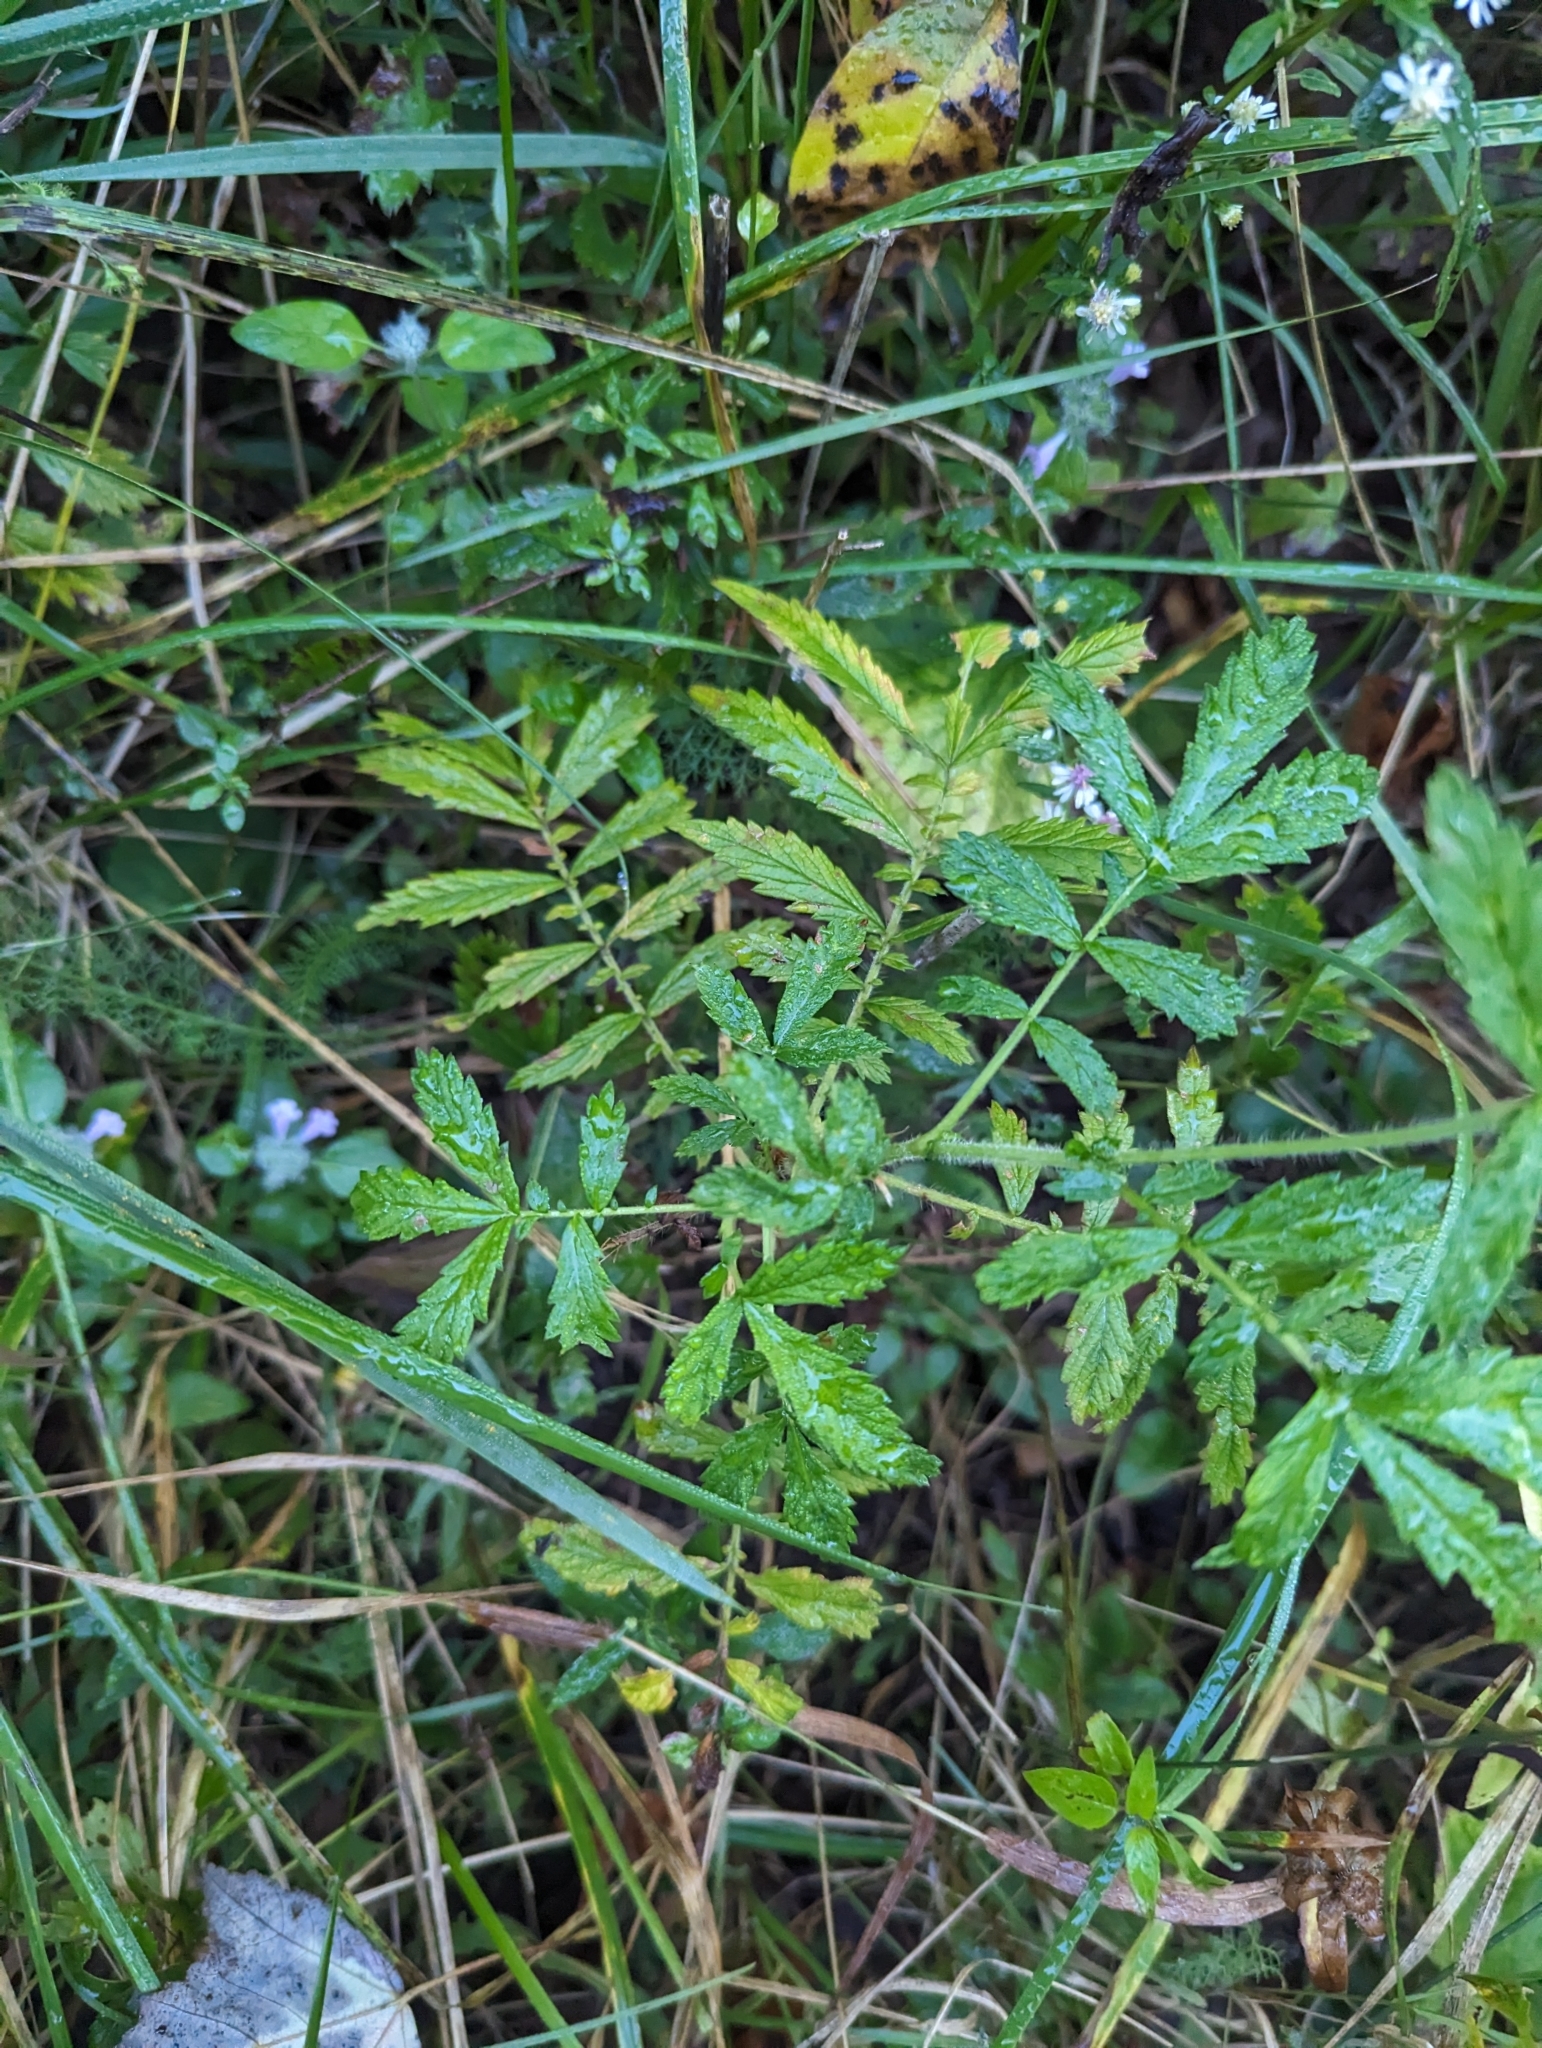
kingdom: Plantae
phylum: Tracheophyta
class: Magnoliopsida
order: Rosales
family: Rosaceae
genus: Agrimonia
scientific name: Agrimonia parviflora
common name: Harvest-lice
